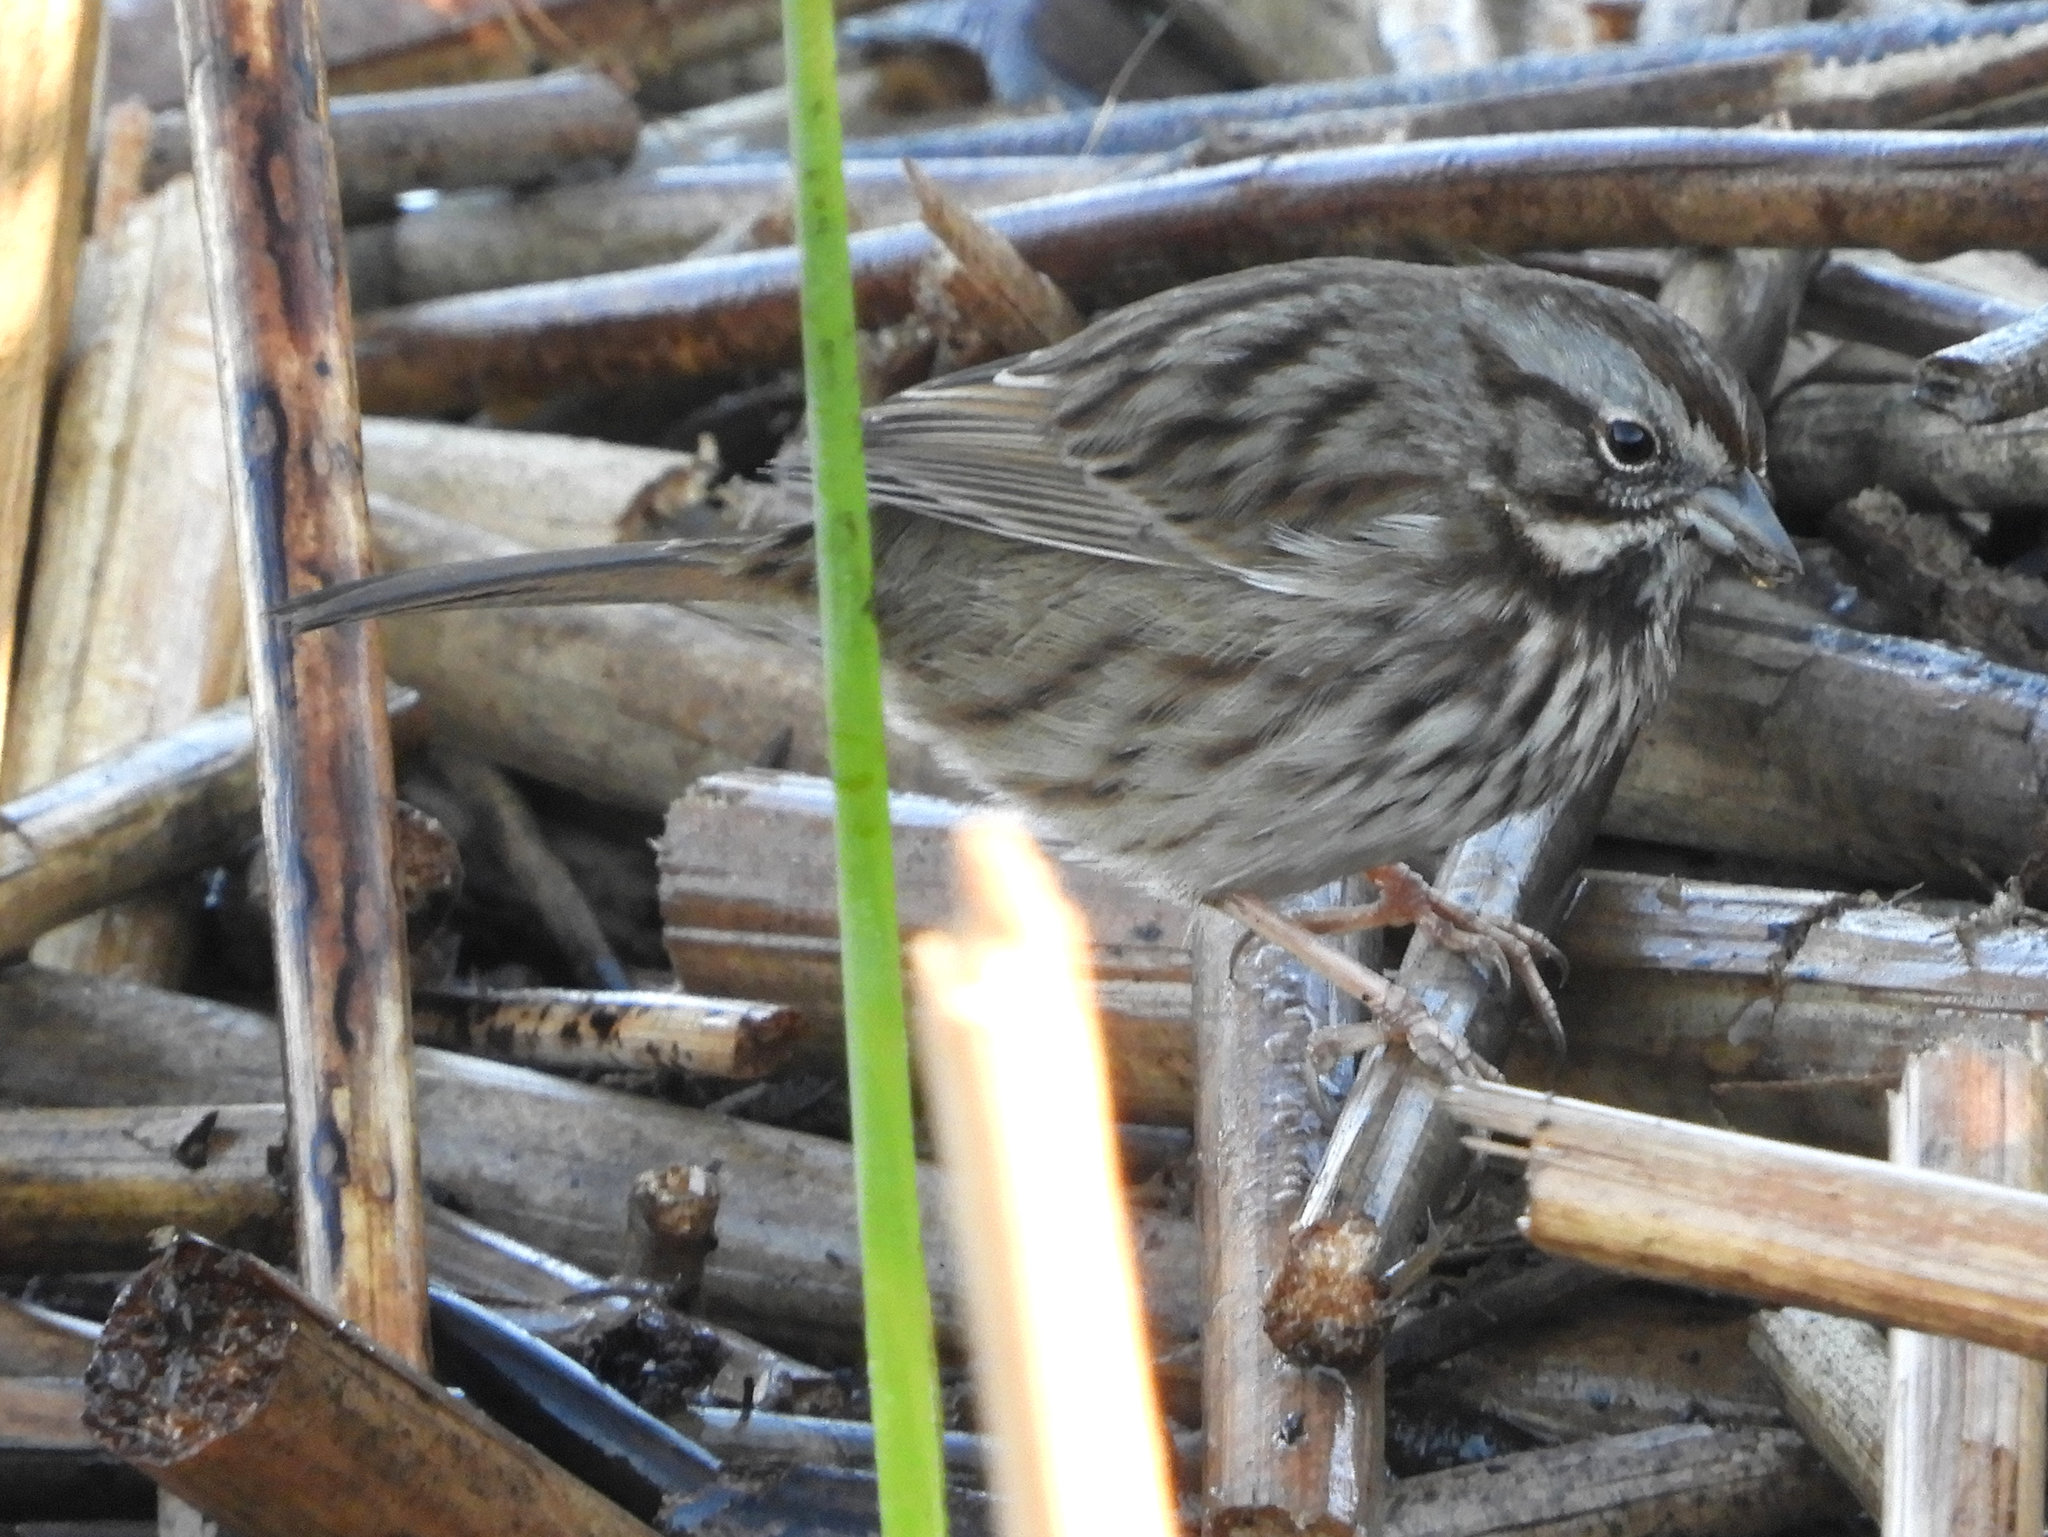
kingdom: Animalia
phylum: Chordata
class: Aves
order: Passeriformes
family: Passerellidae
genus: Melospiza
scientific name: Melospiza melodia
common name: Song sparrow
